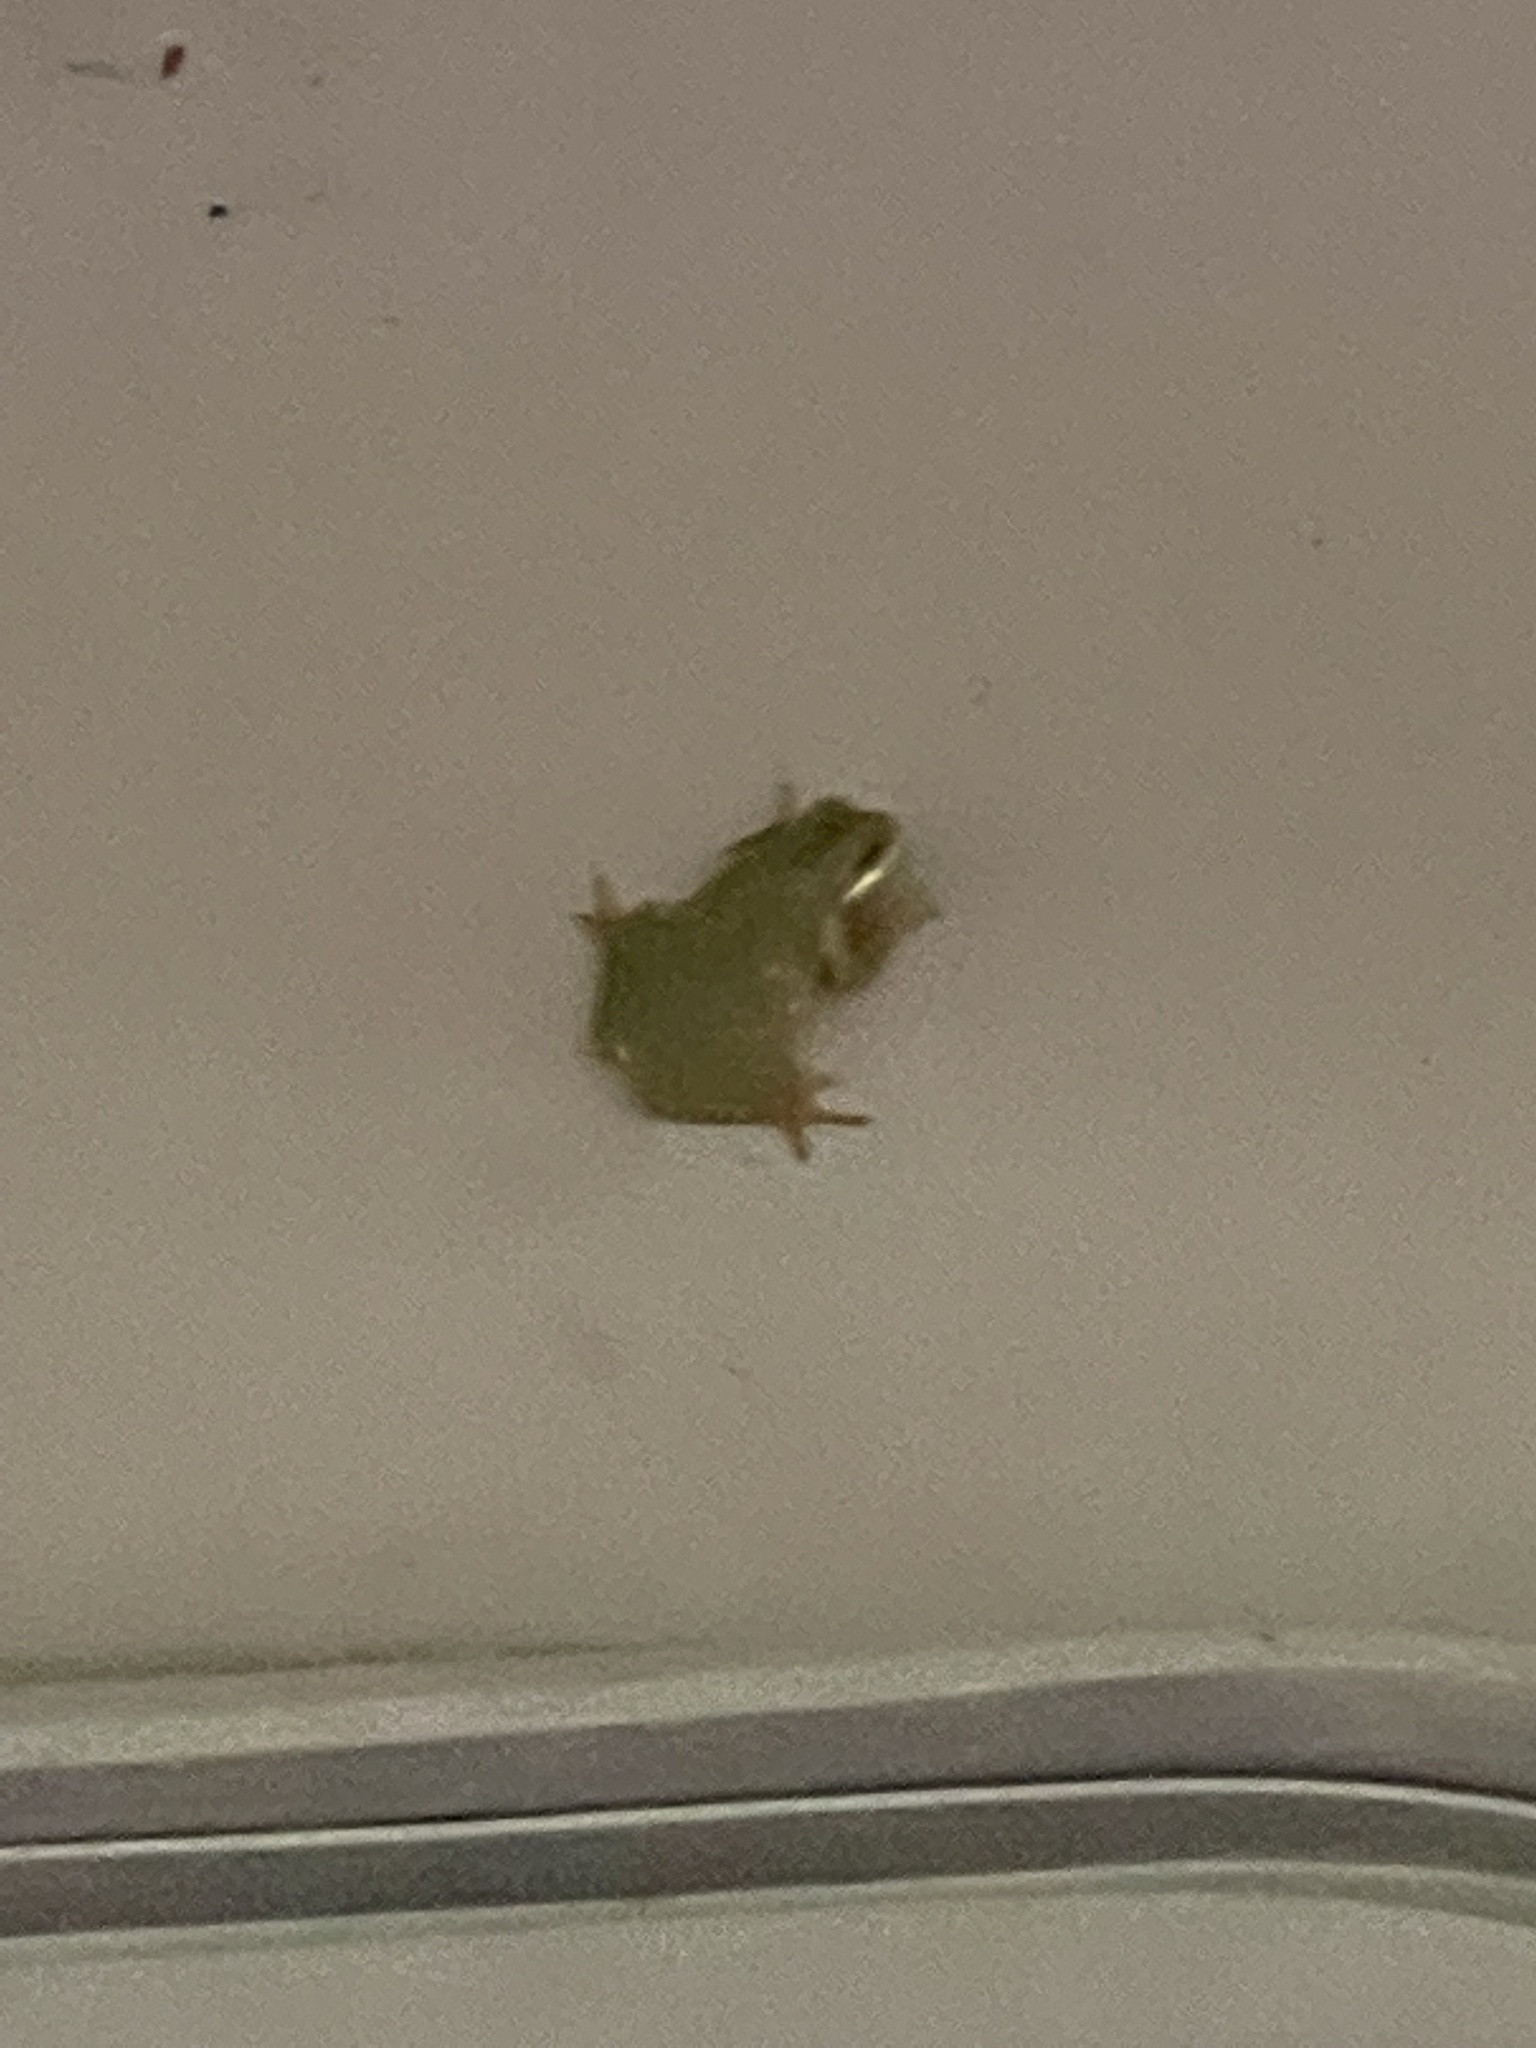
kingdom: Animalia
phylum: Chordata
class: Amphibia
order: Anura
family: Hylidae
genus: Dryophytes
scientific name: Dryophytes squirellus
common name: Squirrel treefrog
